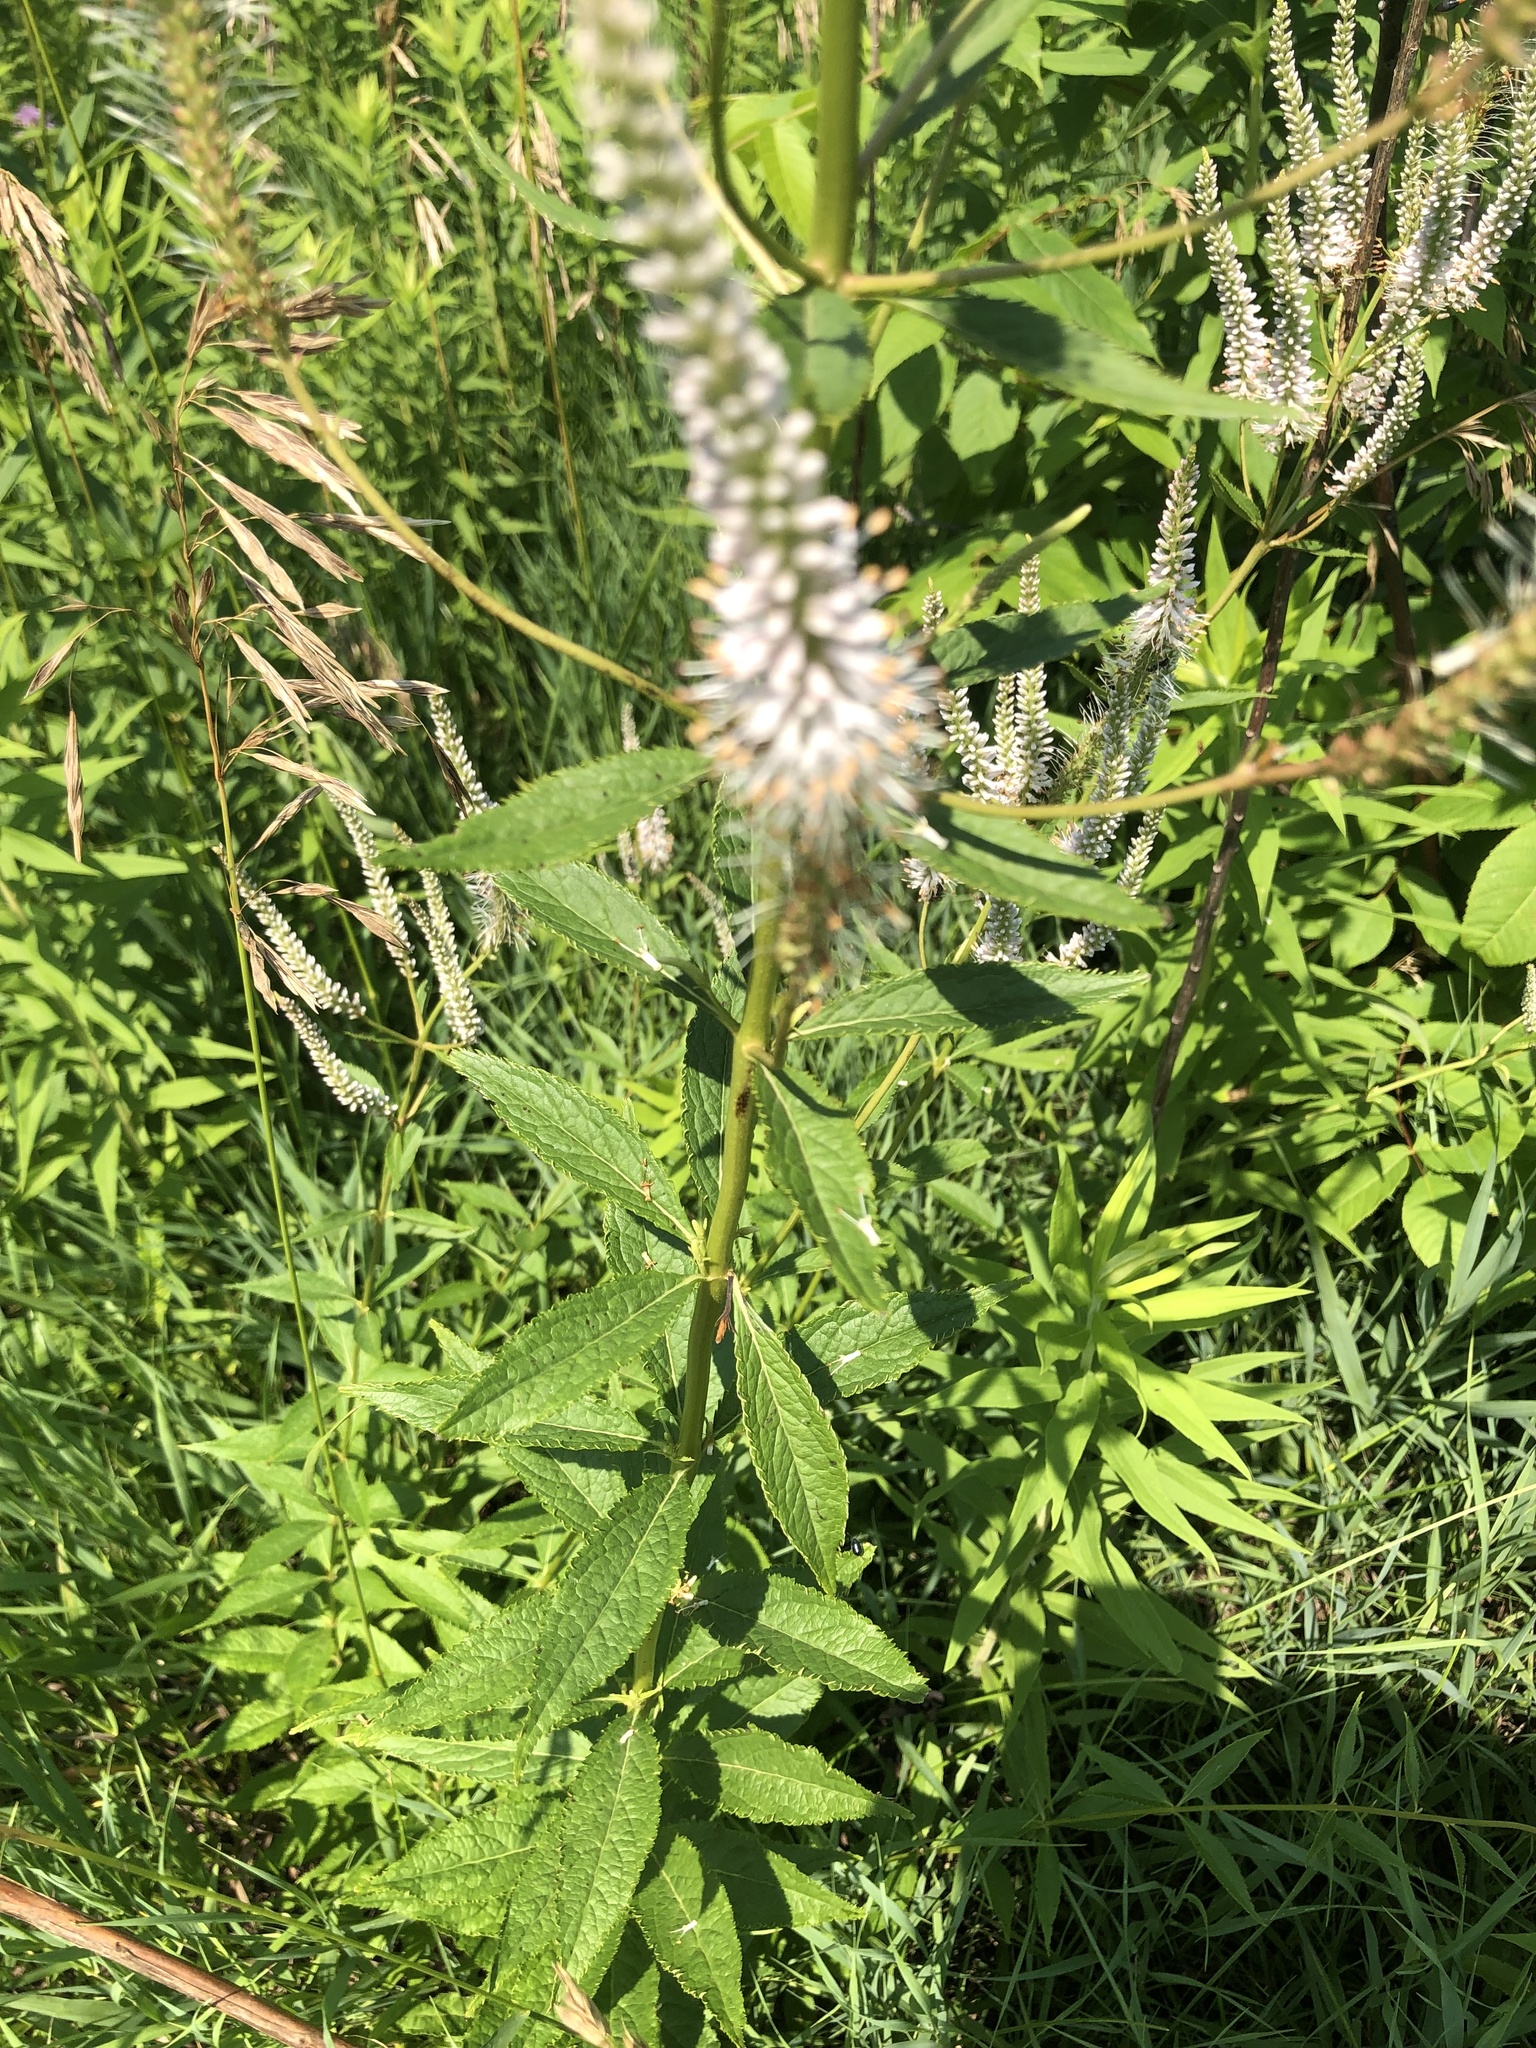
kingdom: Plantae
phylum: Tracheophyta
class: Magnoliopsida
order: Lamiales
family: Plantaginaceae
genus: Veronicastrum
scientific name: Veronicastrum virginicum
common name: Blackroot
